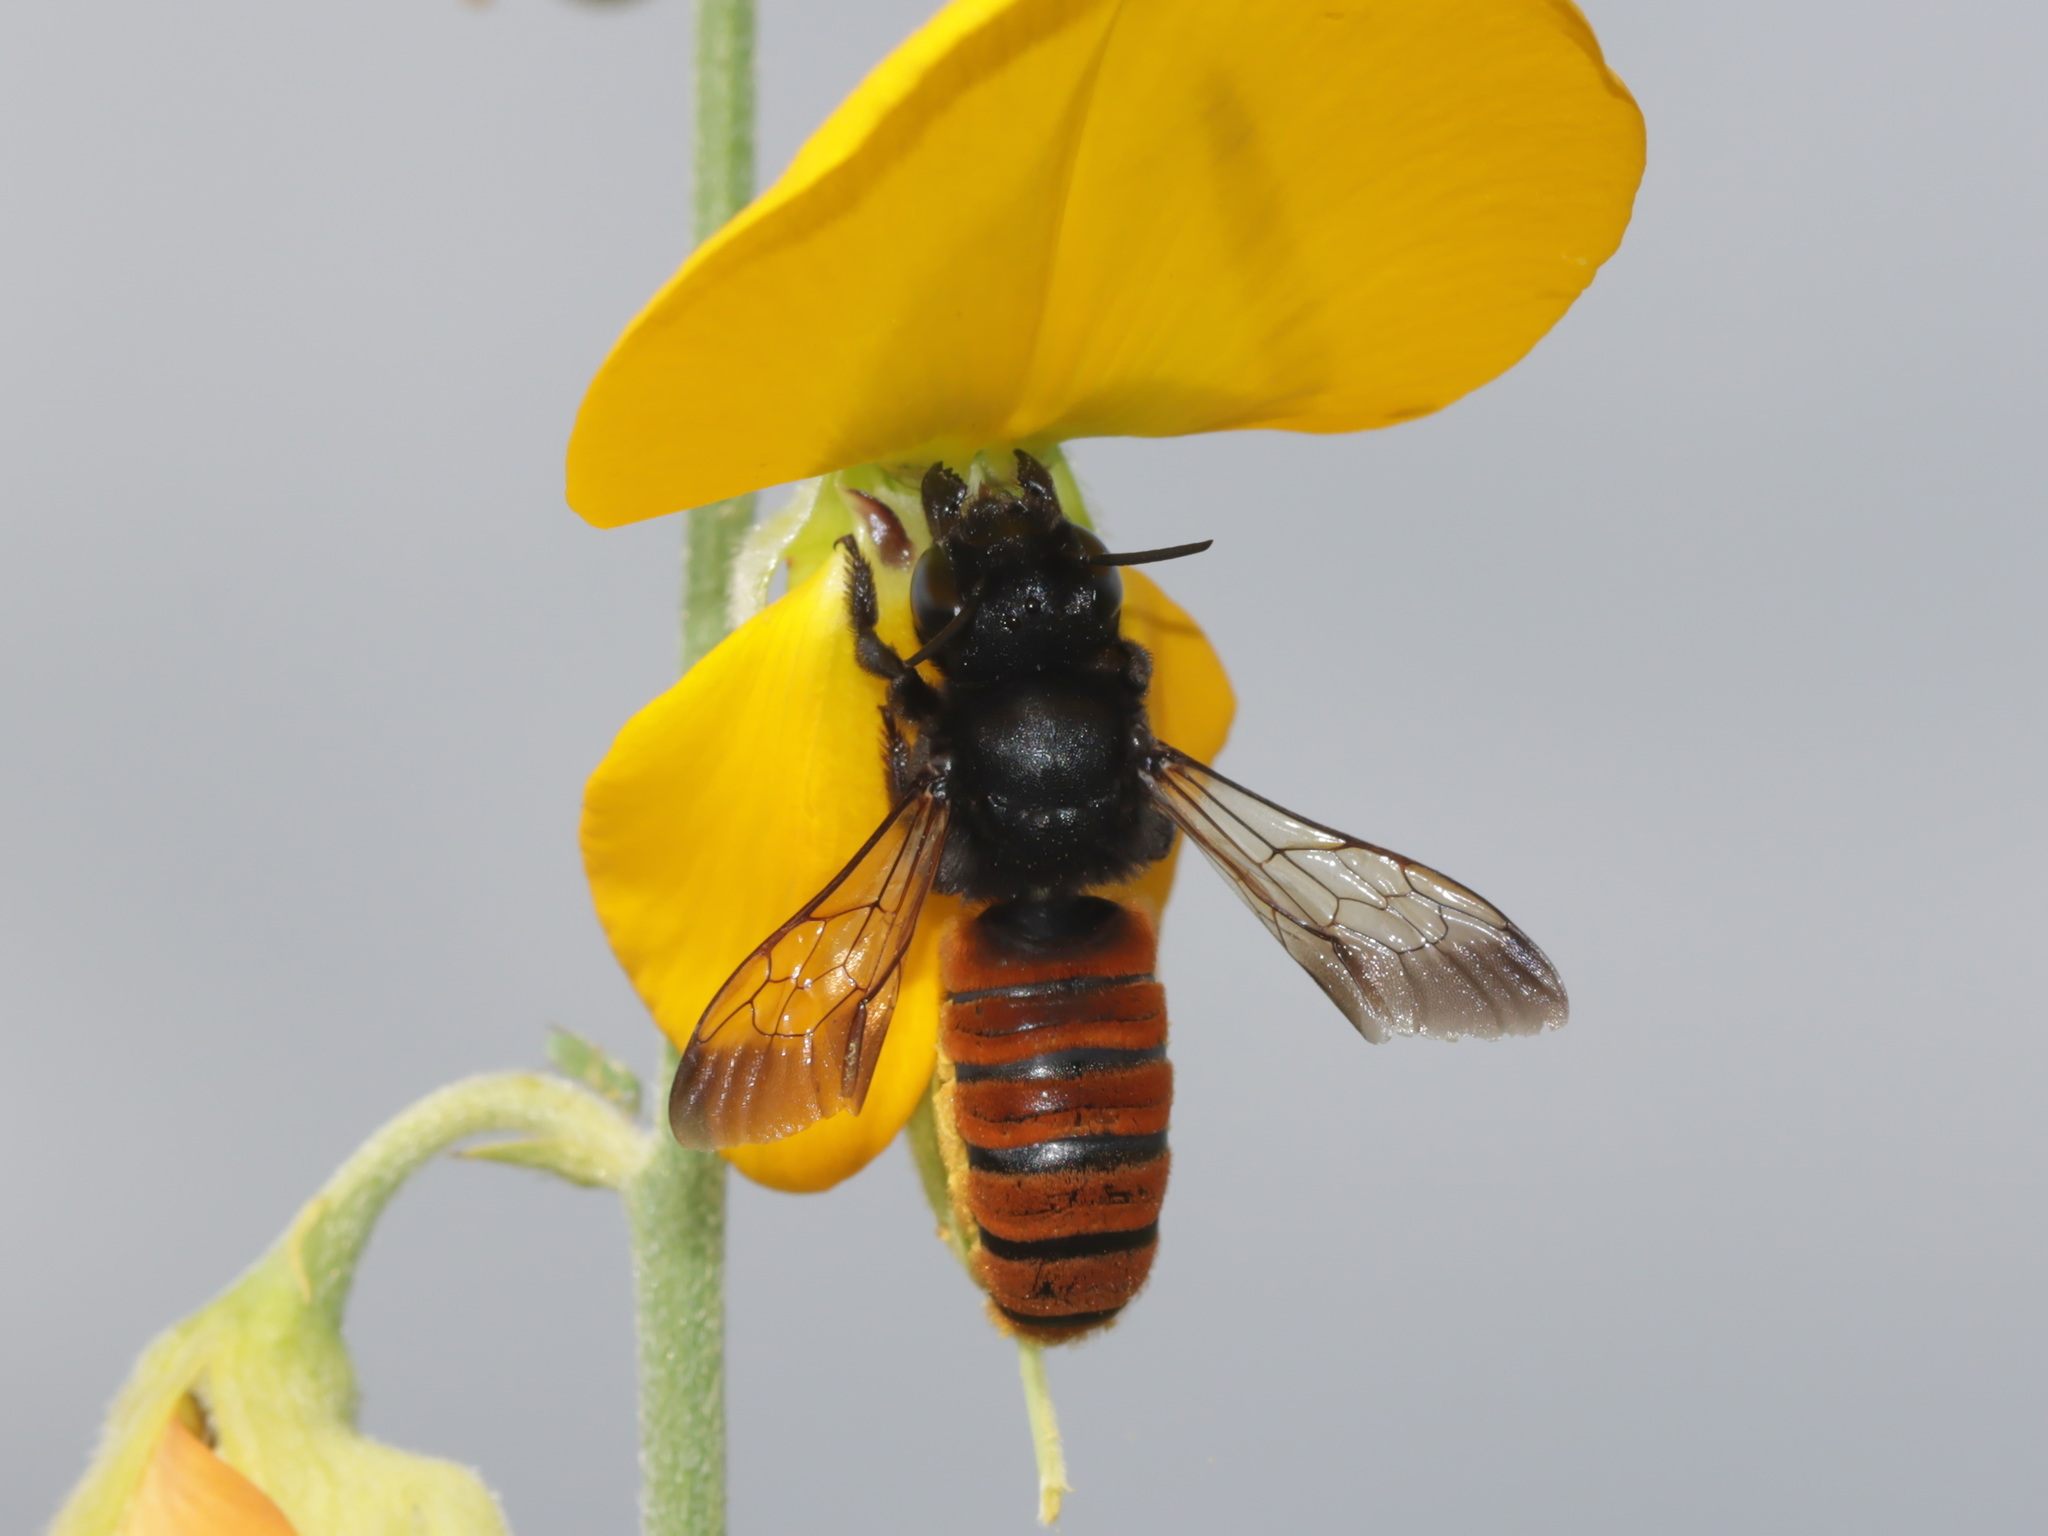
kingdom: Animalia
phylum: Arthropoda
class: Insecta
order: Hymenoptera
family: Megachilidae
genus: Megachile
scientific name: Megachile fraterna
